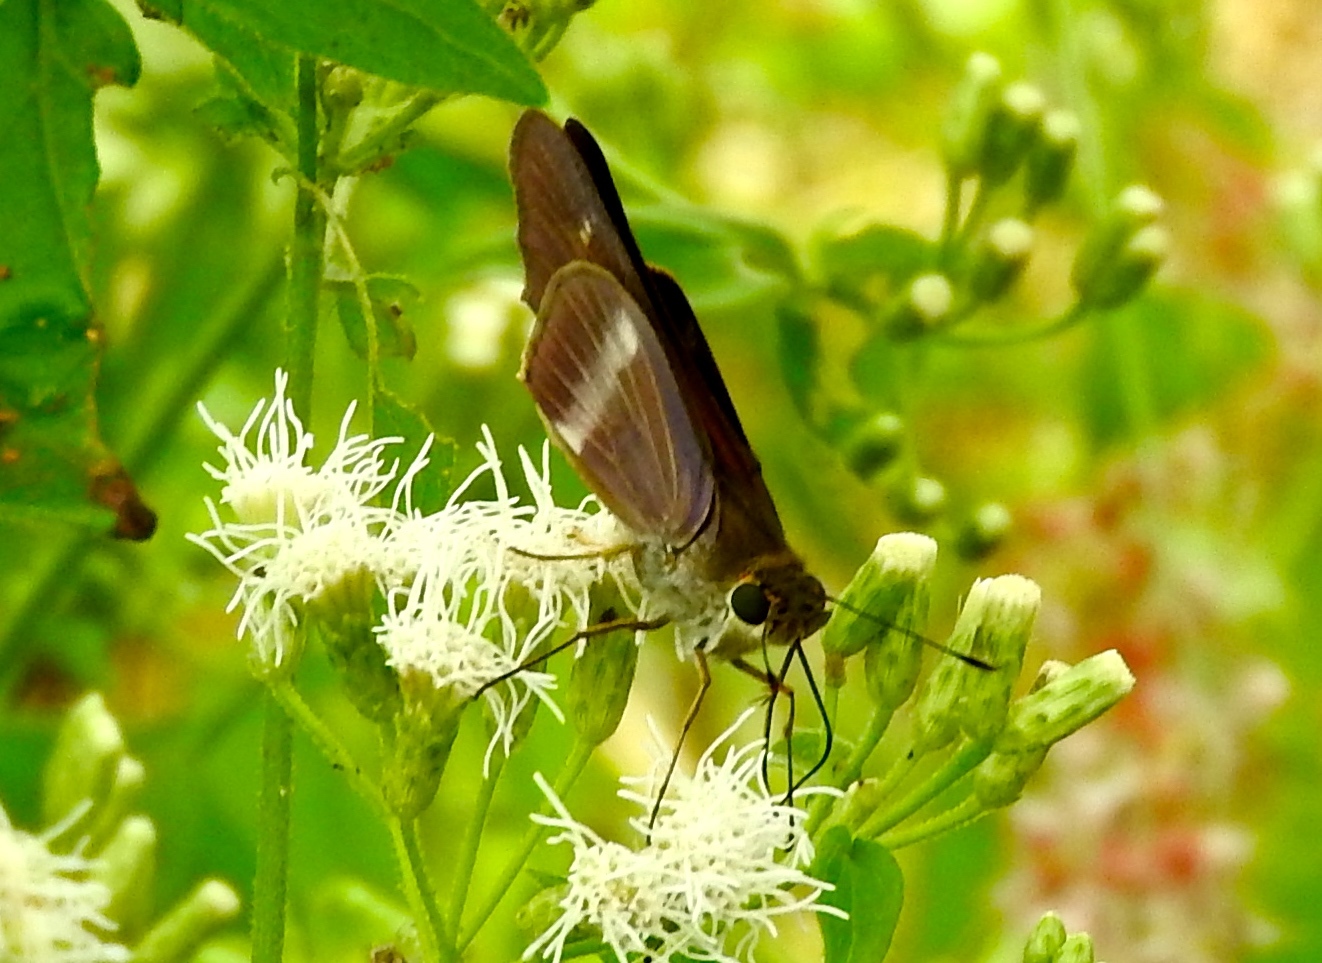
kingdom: Animalia
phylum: Arthropoda
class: Insecta
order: Lepidoptera
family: Hesperiidae
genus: Panoquina
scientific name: Panoquina fusina
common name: Evans' skipper
